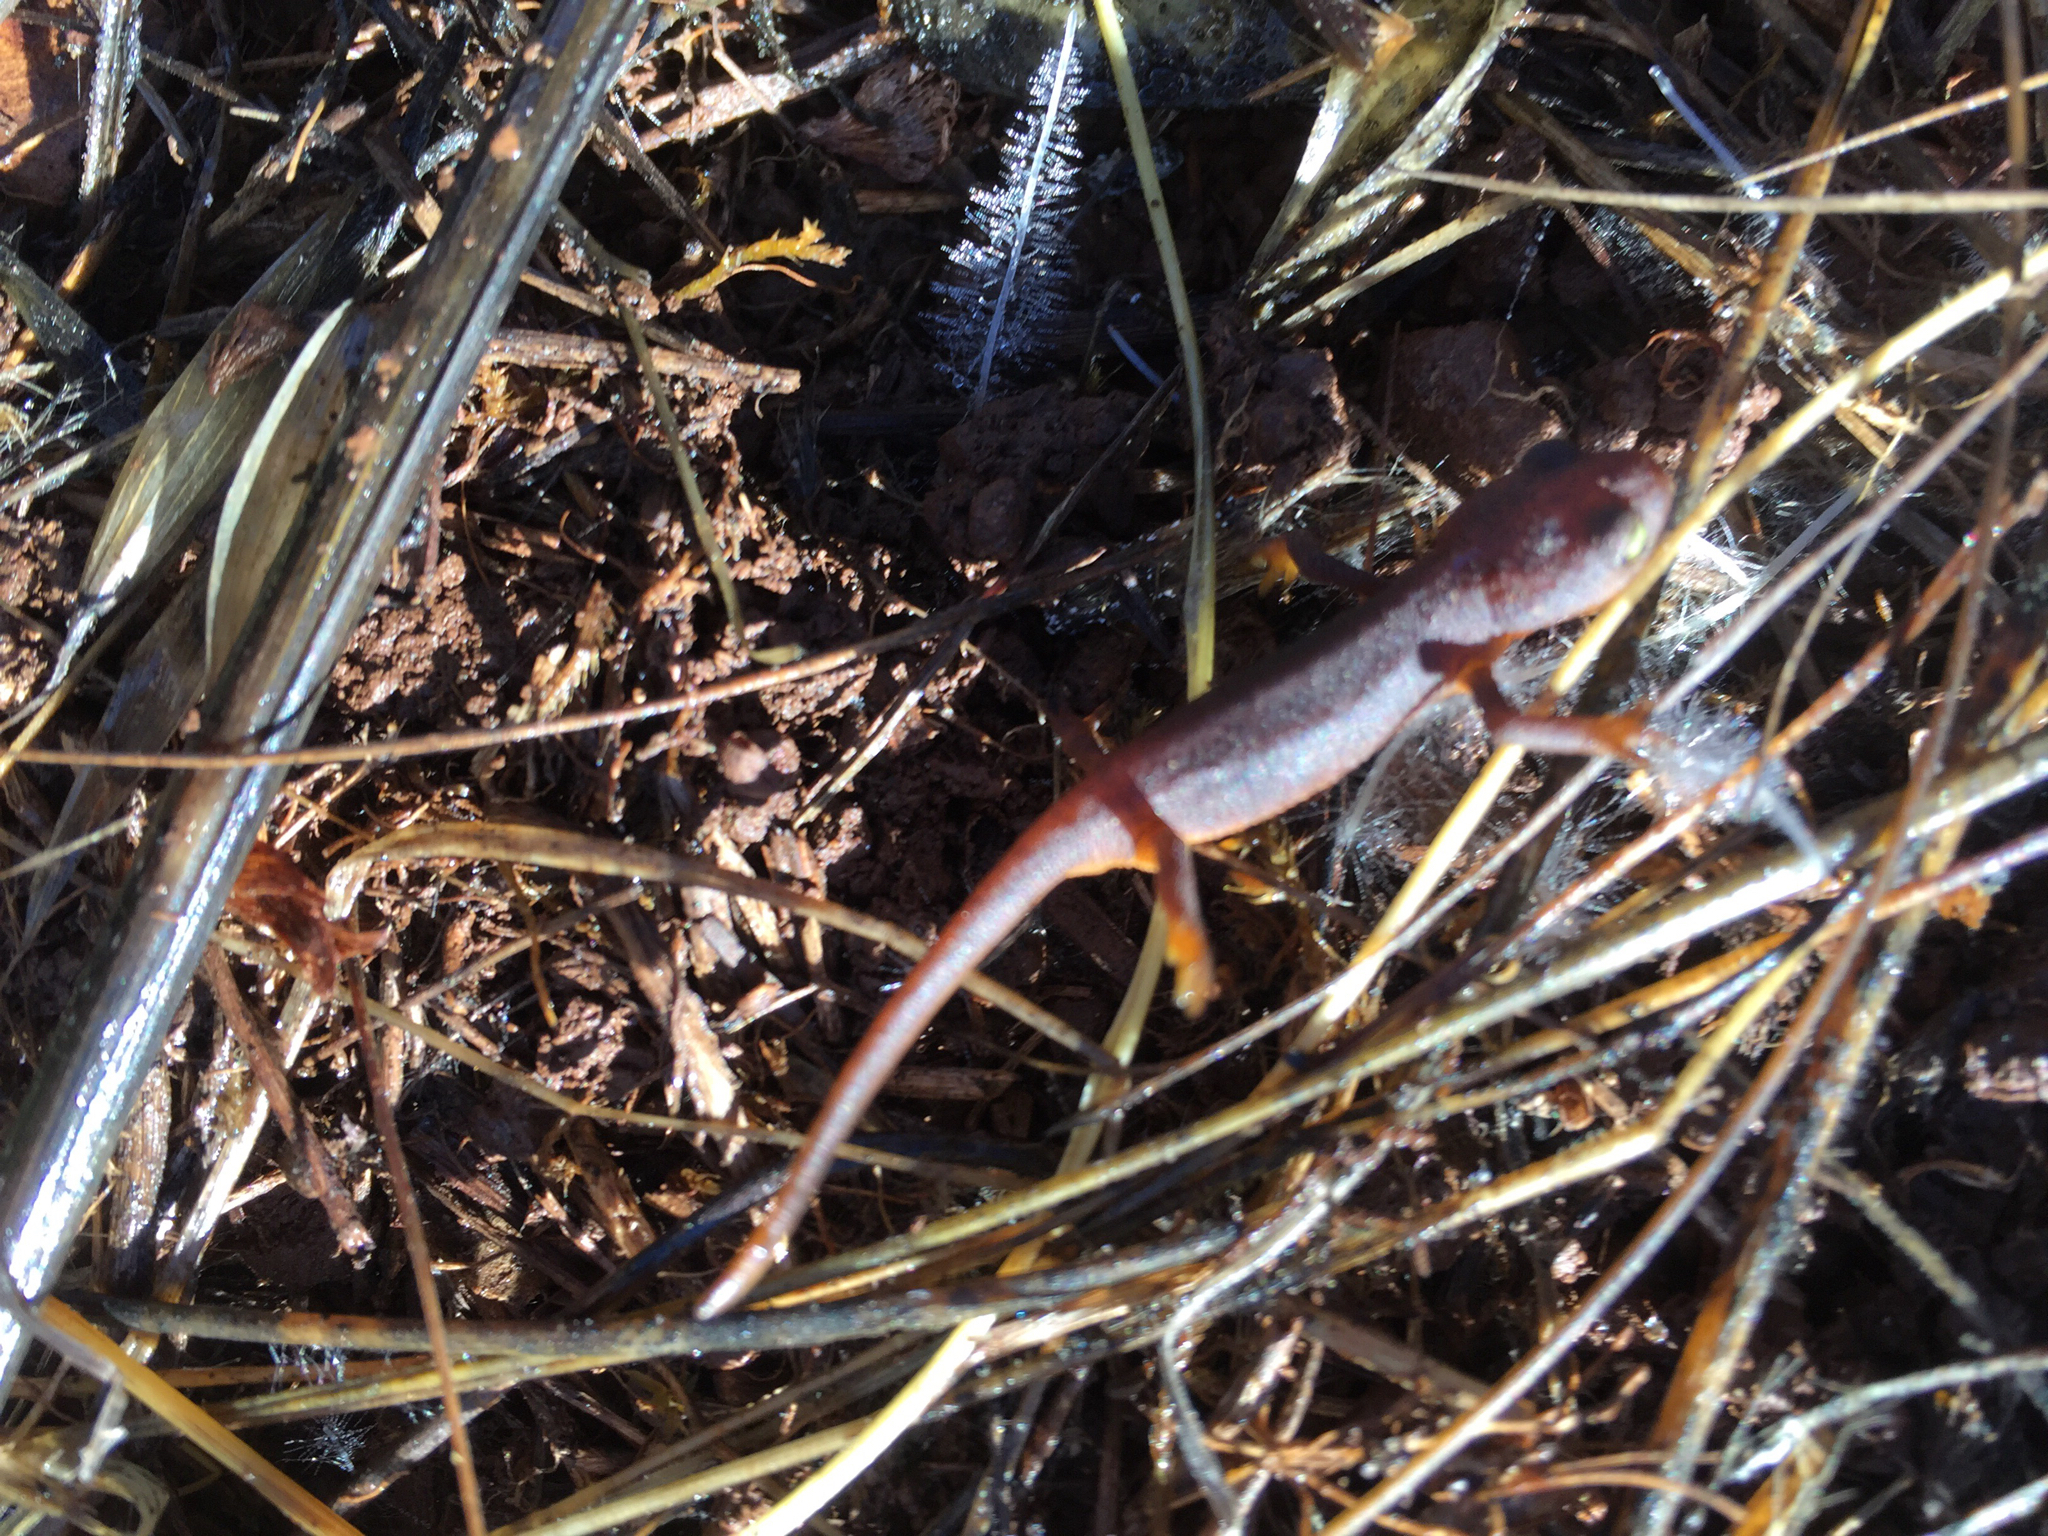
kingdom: Animalia
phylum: Chordata
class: Amphibia
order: Caudata
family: Salamandridae
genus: Taricha
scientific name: Taricha torosa
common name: California newt
